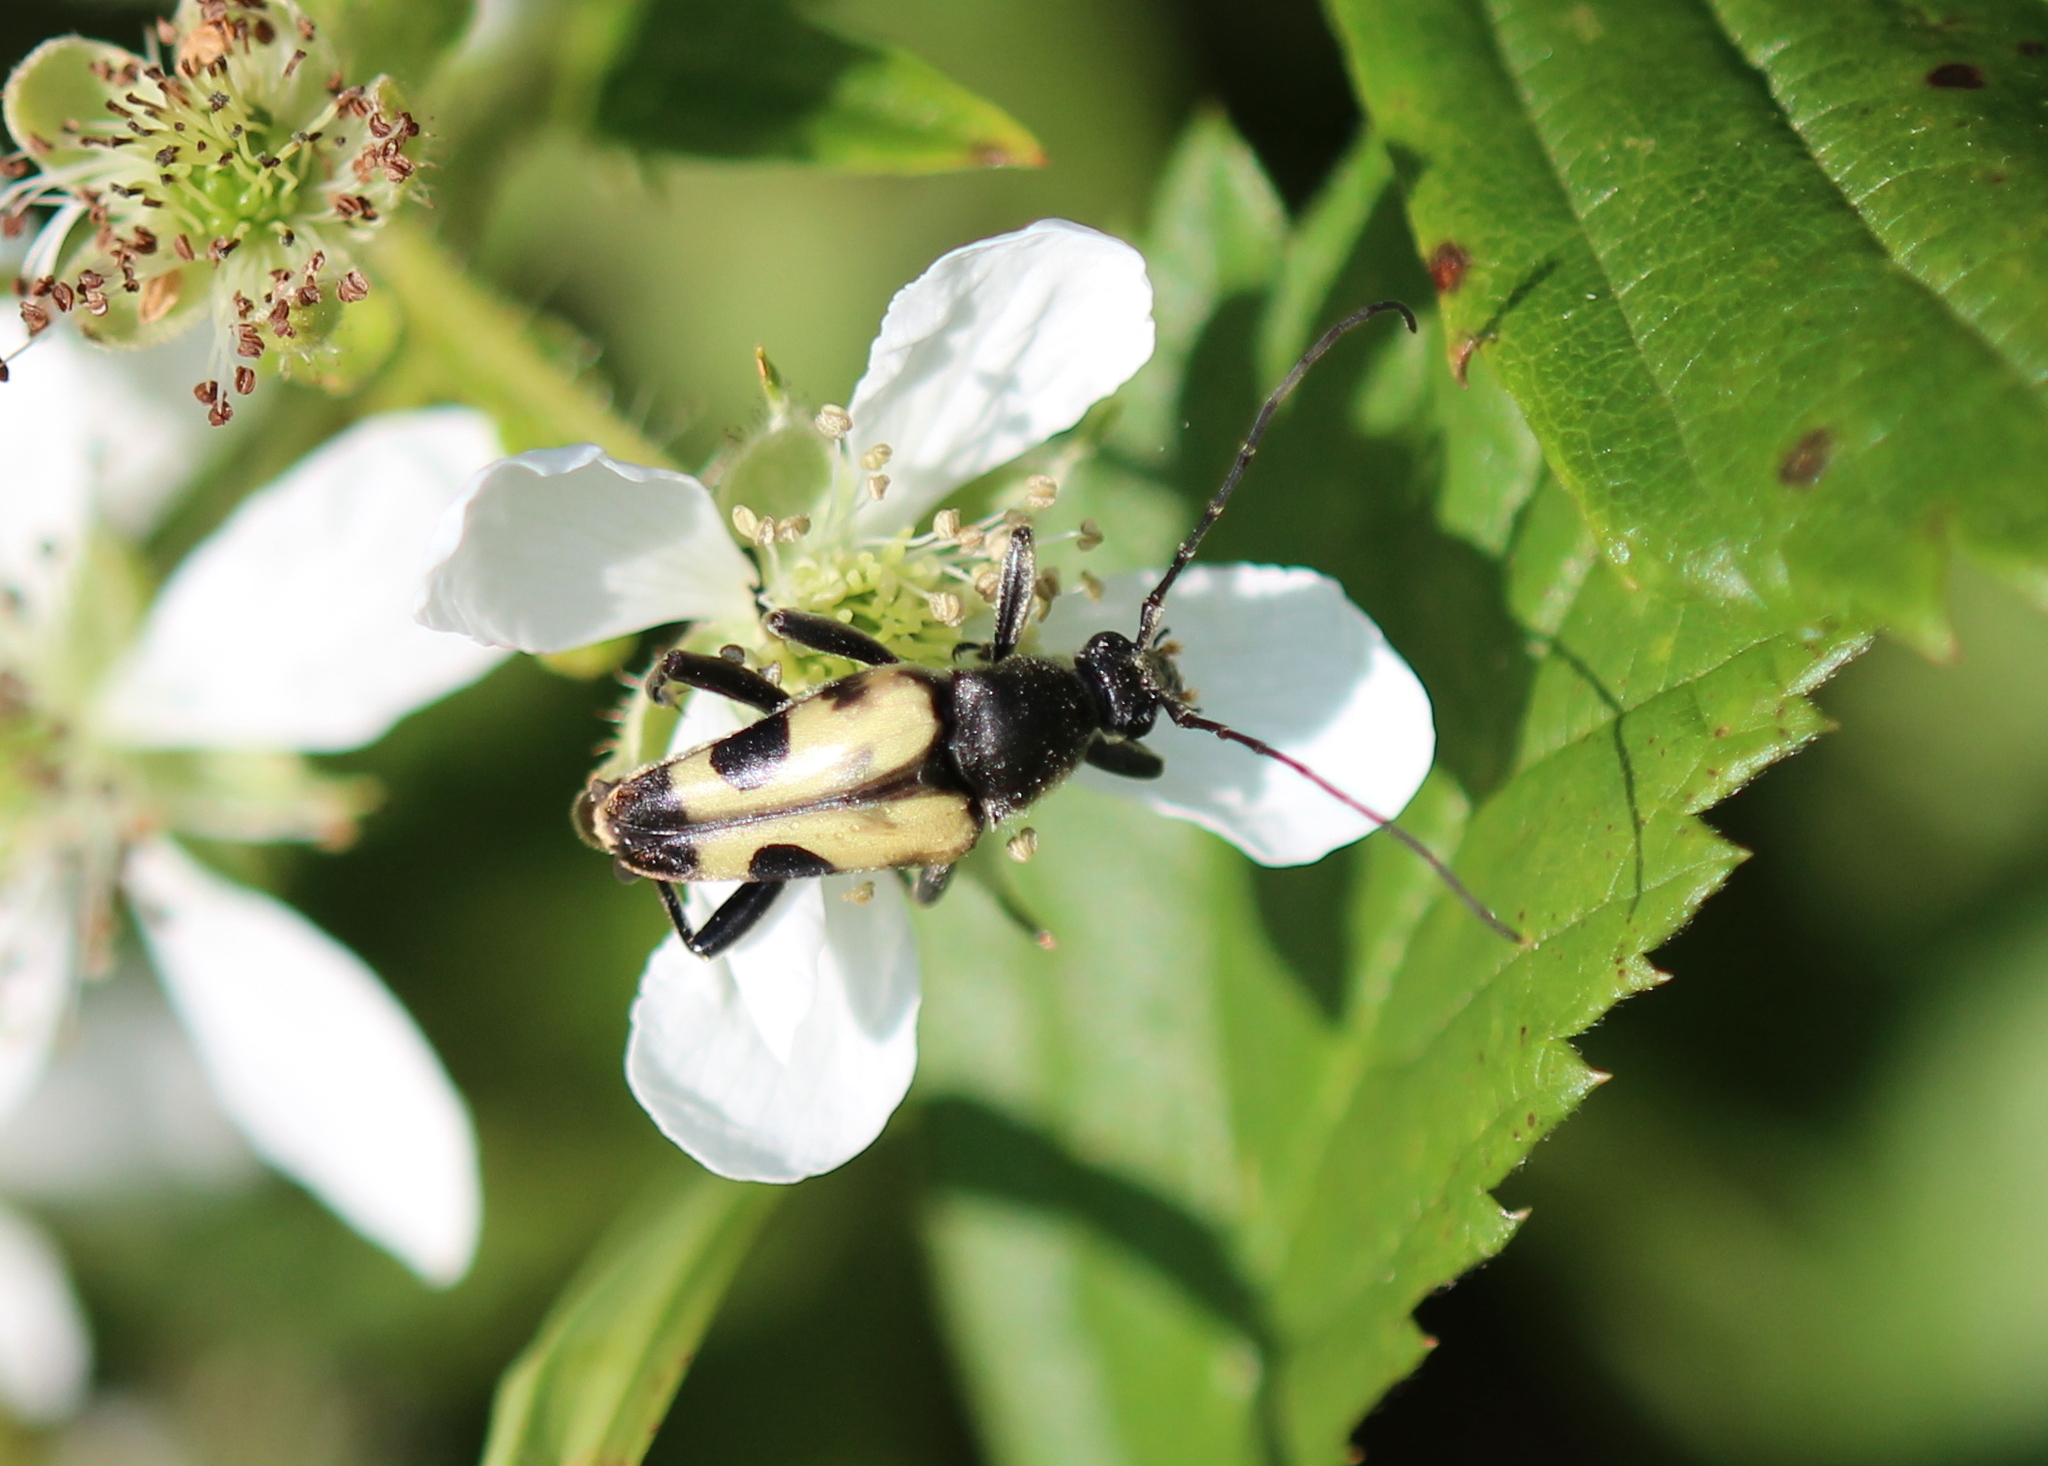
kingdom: Animalia
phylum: Arthropoda
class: Insecta
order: Coleoptera
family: Cerambycidae
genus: Judolia
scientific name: Judolia cordifera
